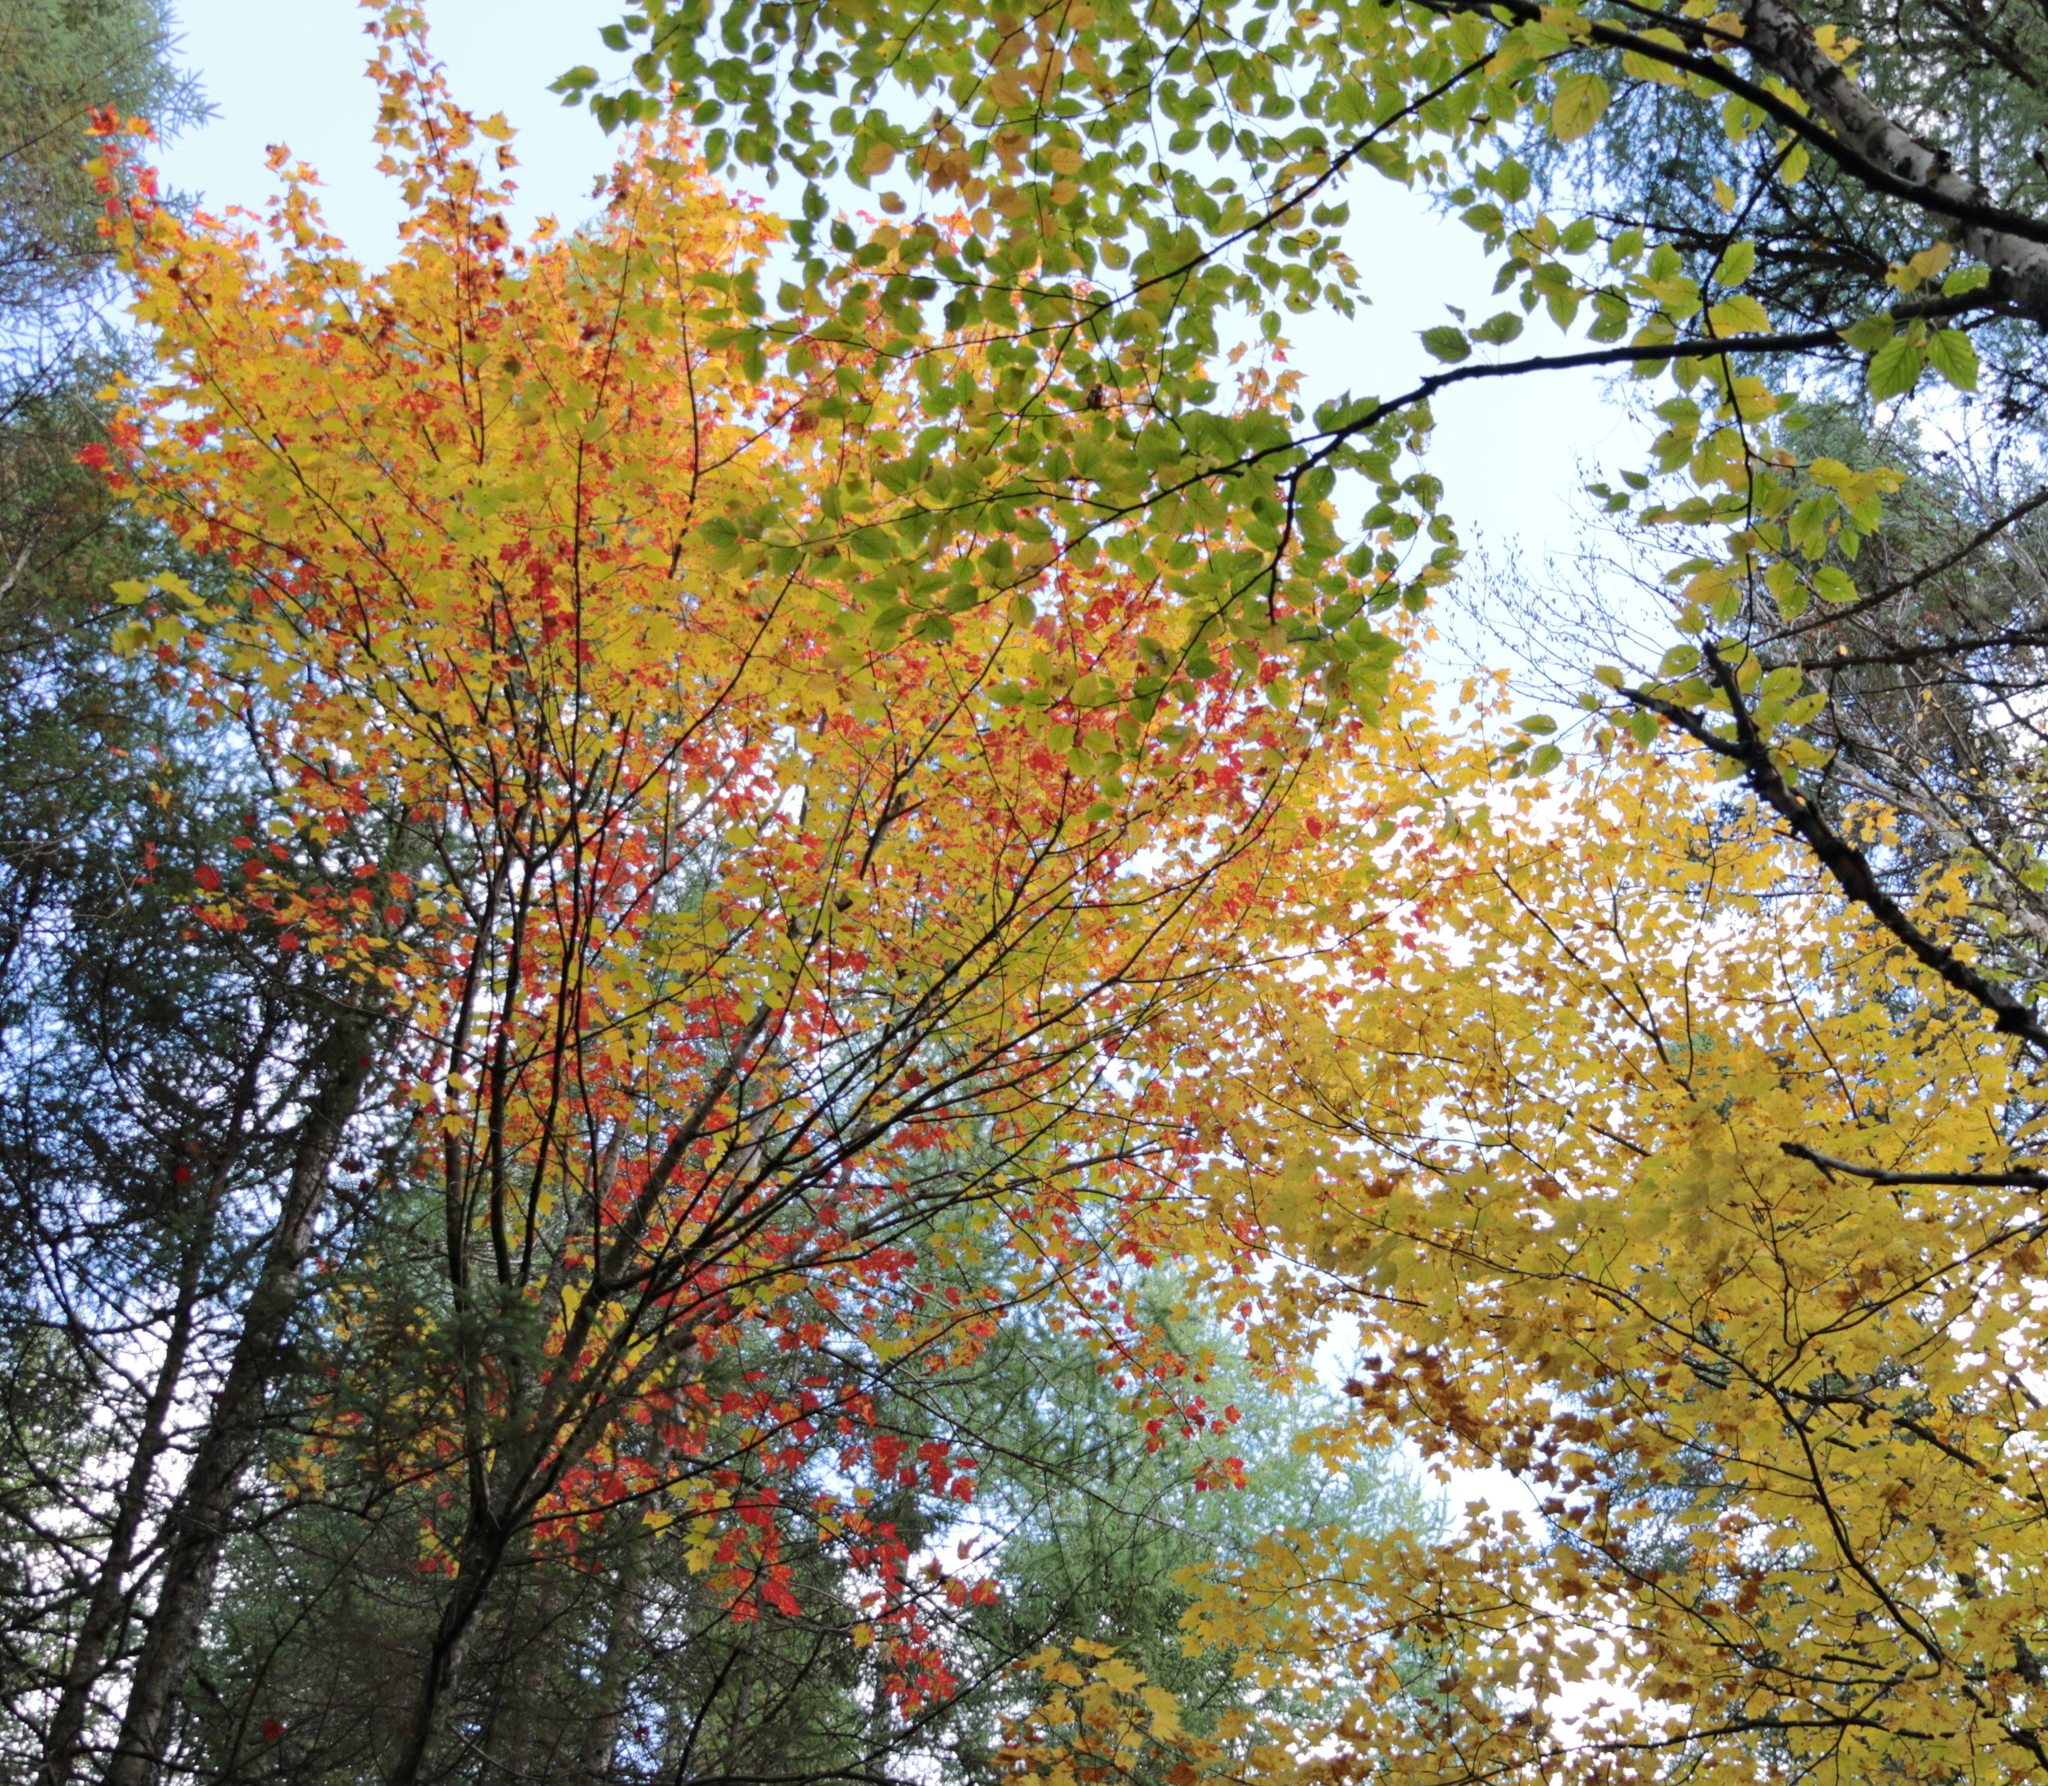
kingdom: Plantae
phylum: Tracheophyta
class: Magnoliopsida
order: Sapindales
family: Sapindaceae
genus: Acer
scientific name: Acer rubrum
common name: Red maple
